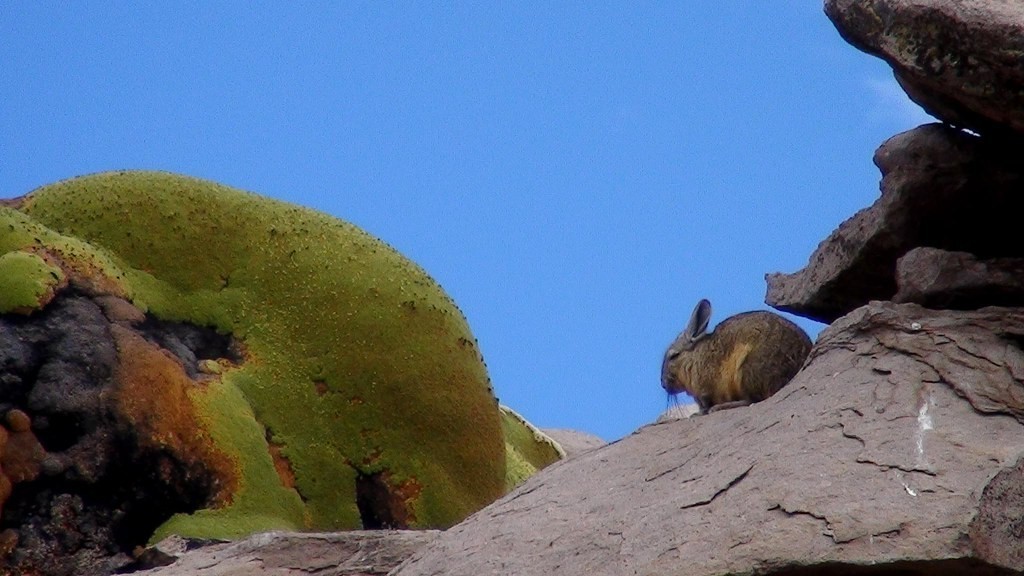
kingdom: Animalia
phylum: Chordata
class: Mammalia
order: Rodentia
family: Chinchillidae
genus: Lagidium
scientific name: Lagidium viscacia
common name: Southern viscacha
